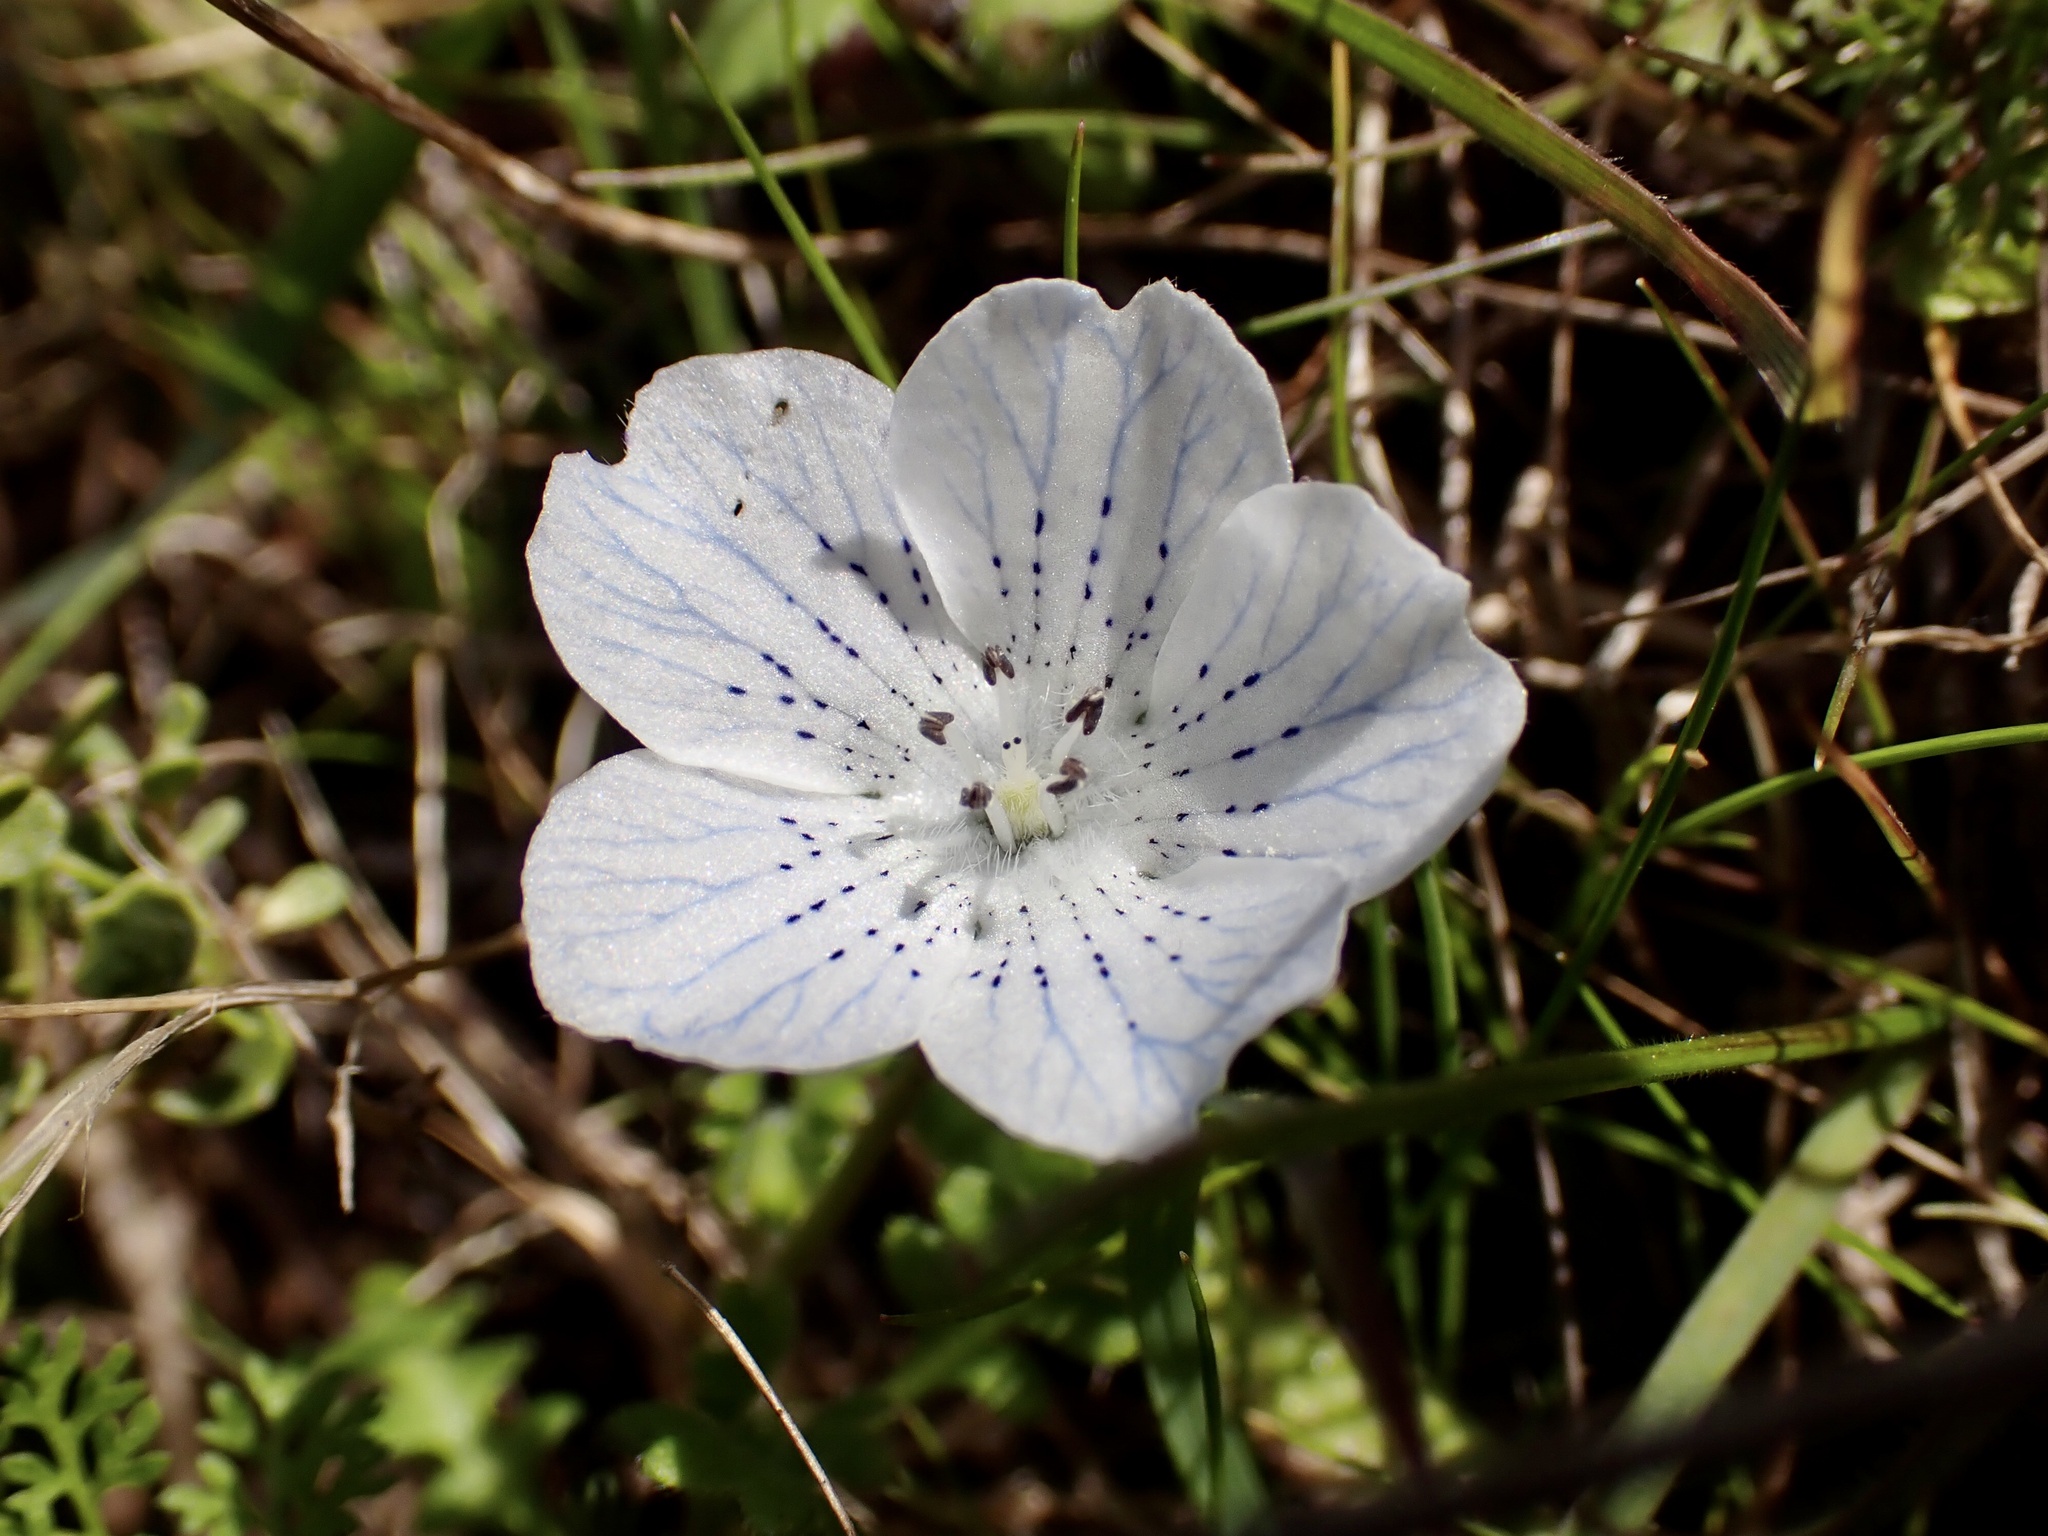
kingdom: Plantae
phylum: Tracheophyta
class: Magnoliopsida
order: Boraginales
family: Hydrophyllaceae
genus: Nemophila
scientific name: Nemophila menziesii
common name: Baby's-blue-eyes
